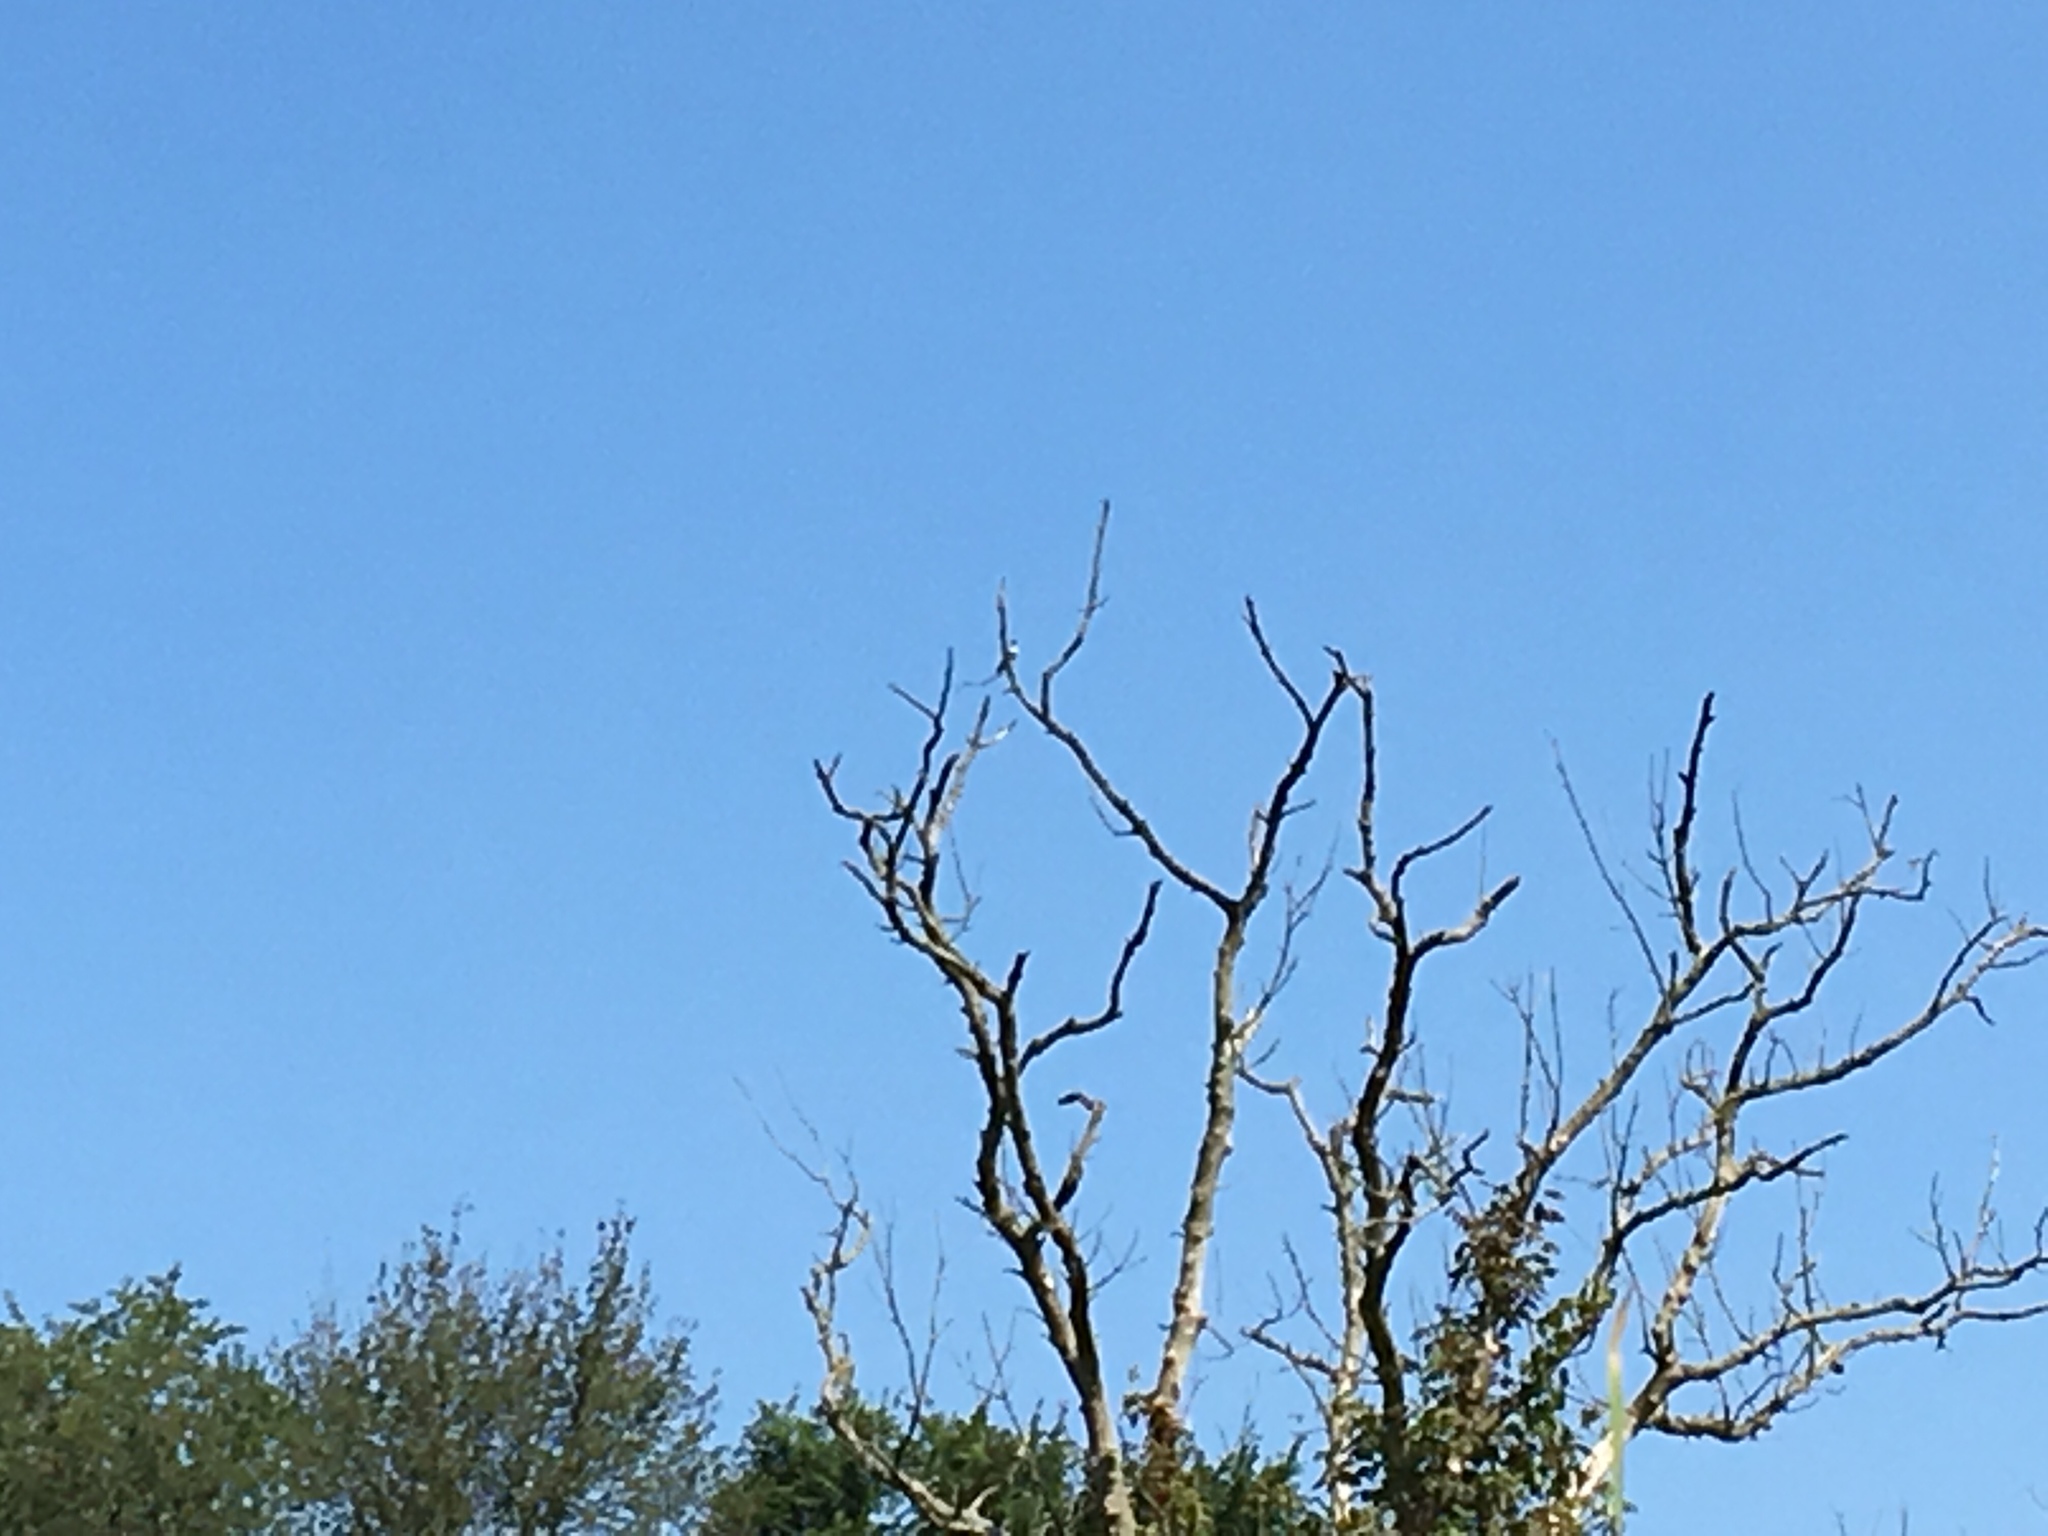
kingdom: Animalia
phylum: Chordata
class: Aves
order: Coraciiformes
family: Alcedinidae
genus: Megaceryle
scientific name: Megaceryle alcyon
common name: Belted kingfisher
